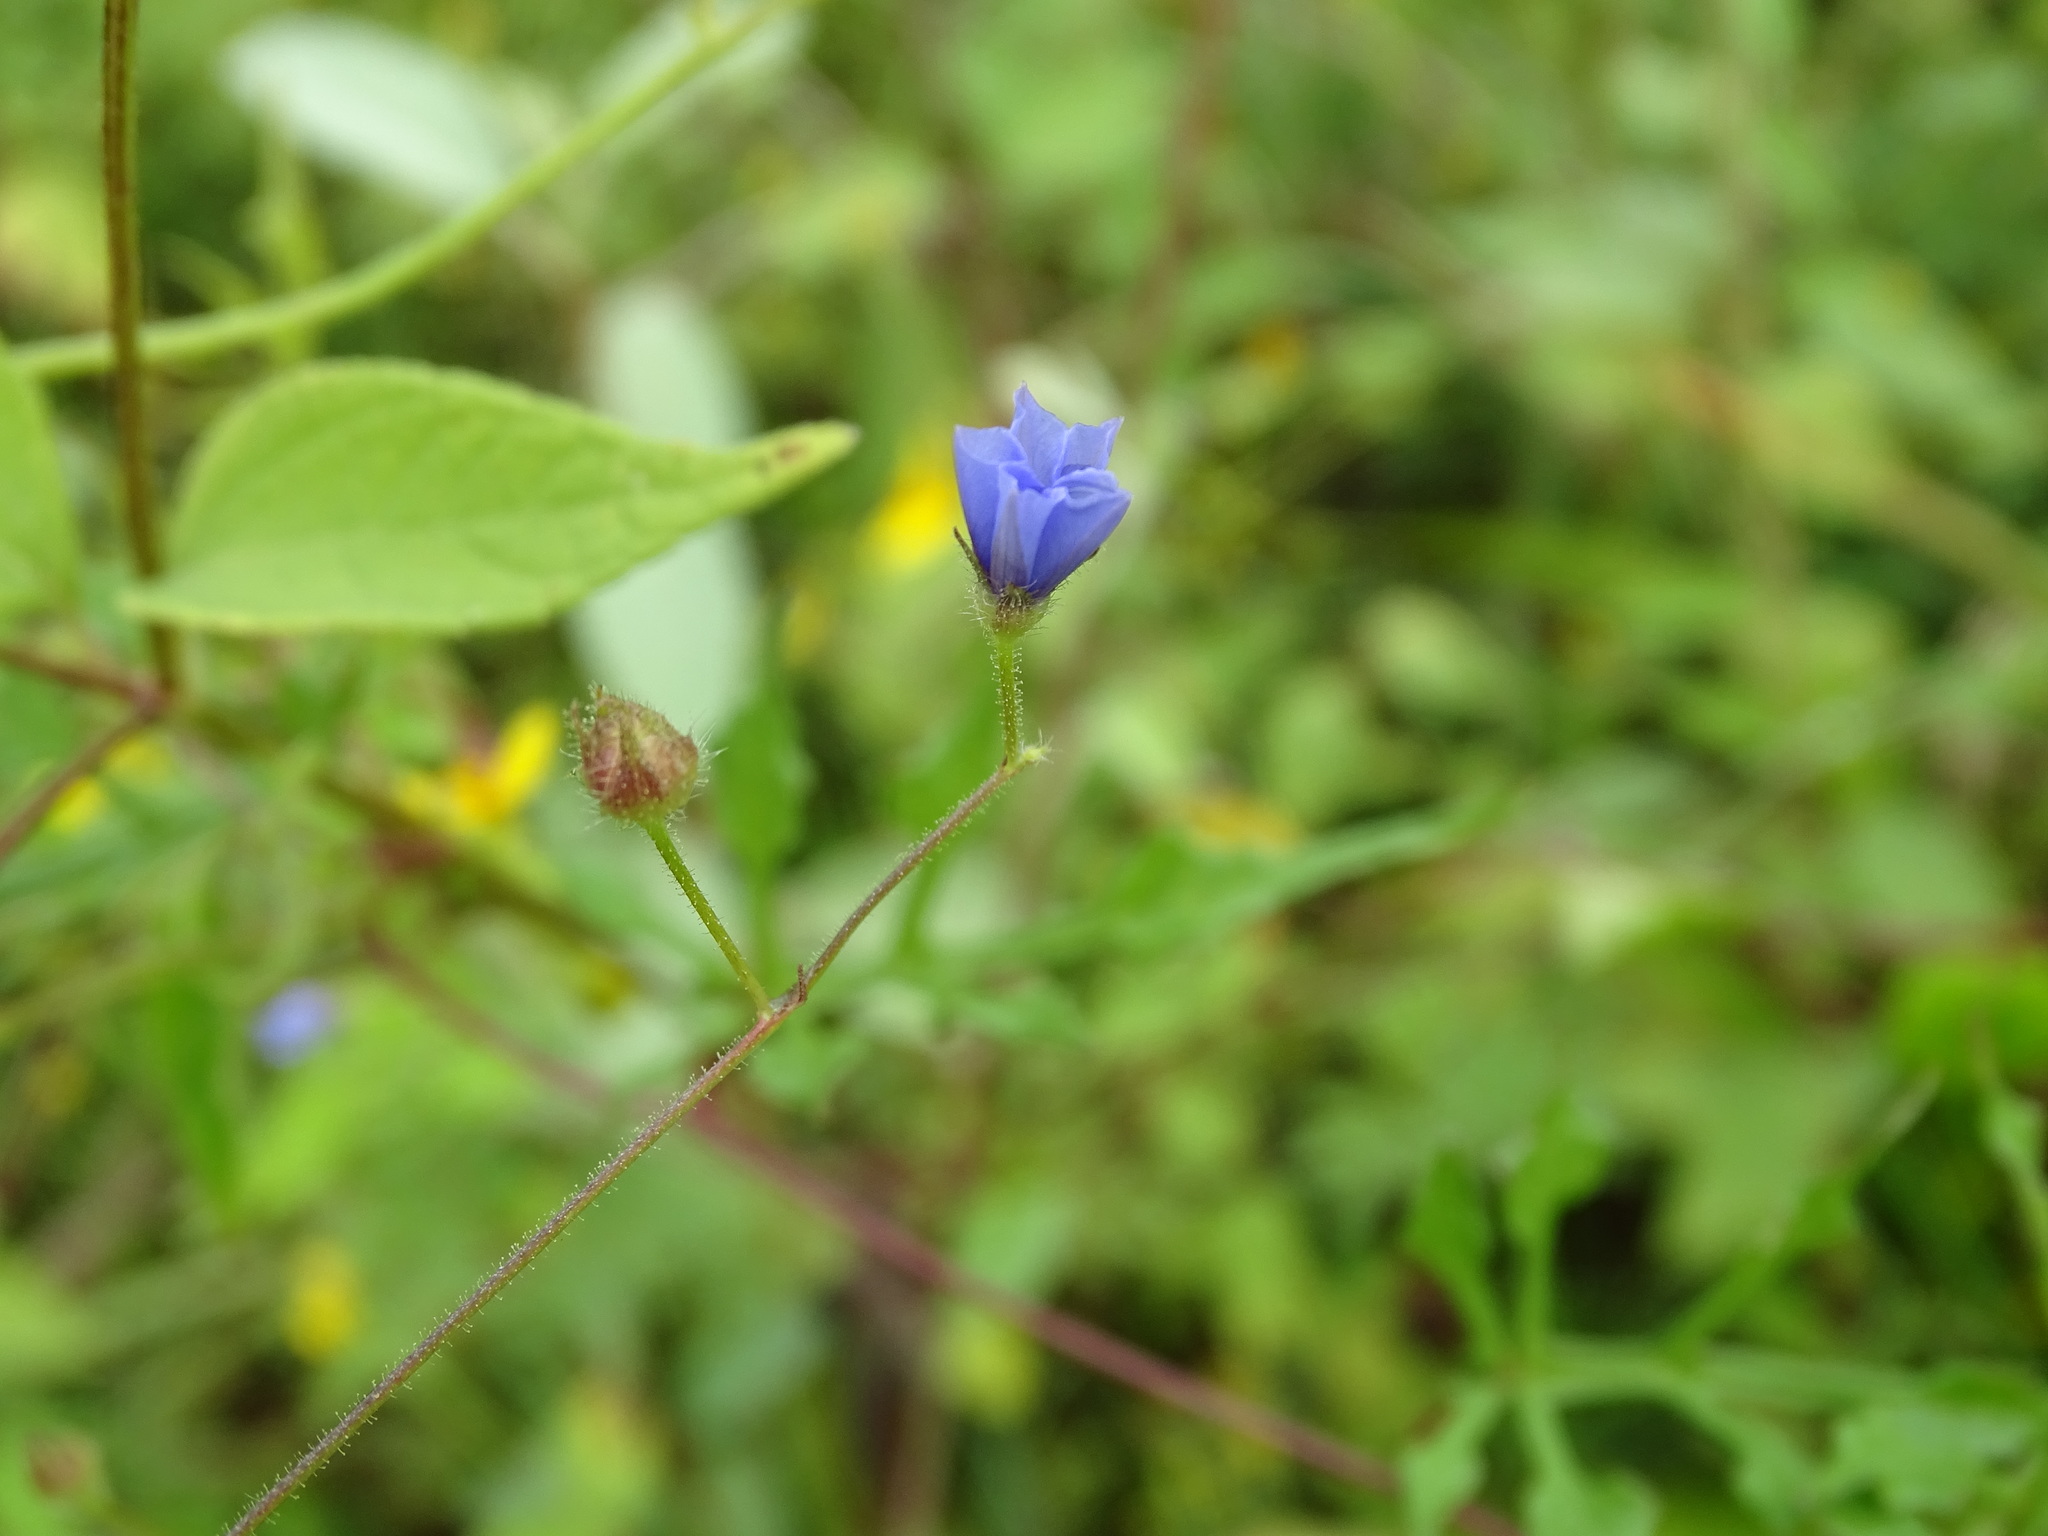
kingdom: Plantae
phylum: Tracheophyta
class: Magnoliopsida
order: Solanales
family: Convolvulaceae
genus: Jacquemontia
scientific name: Jacquemontia evolvuloides
